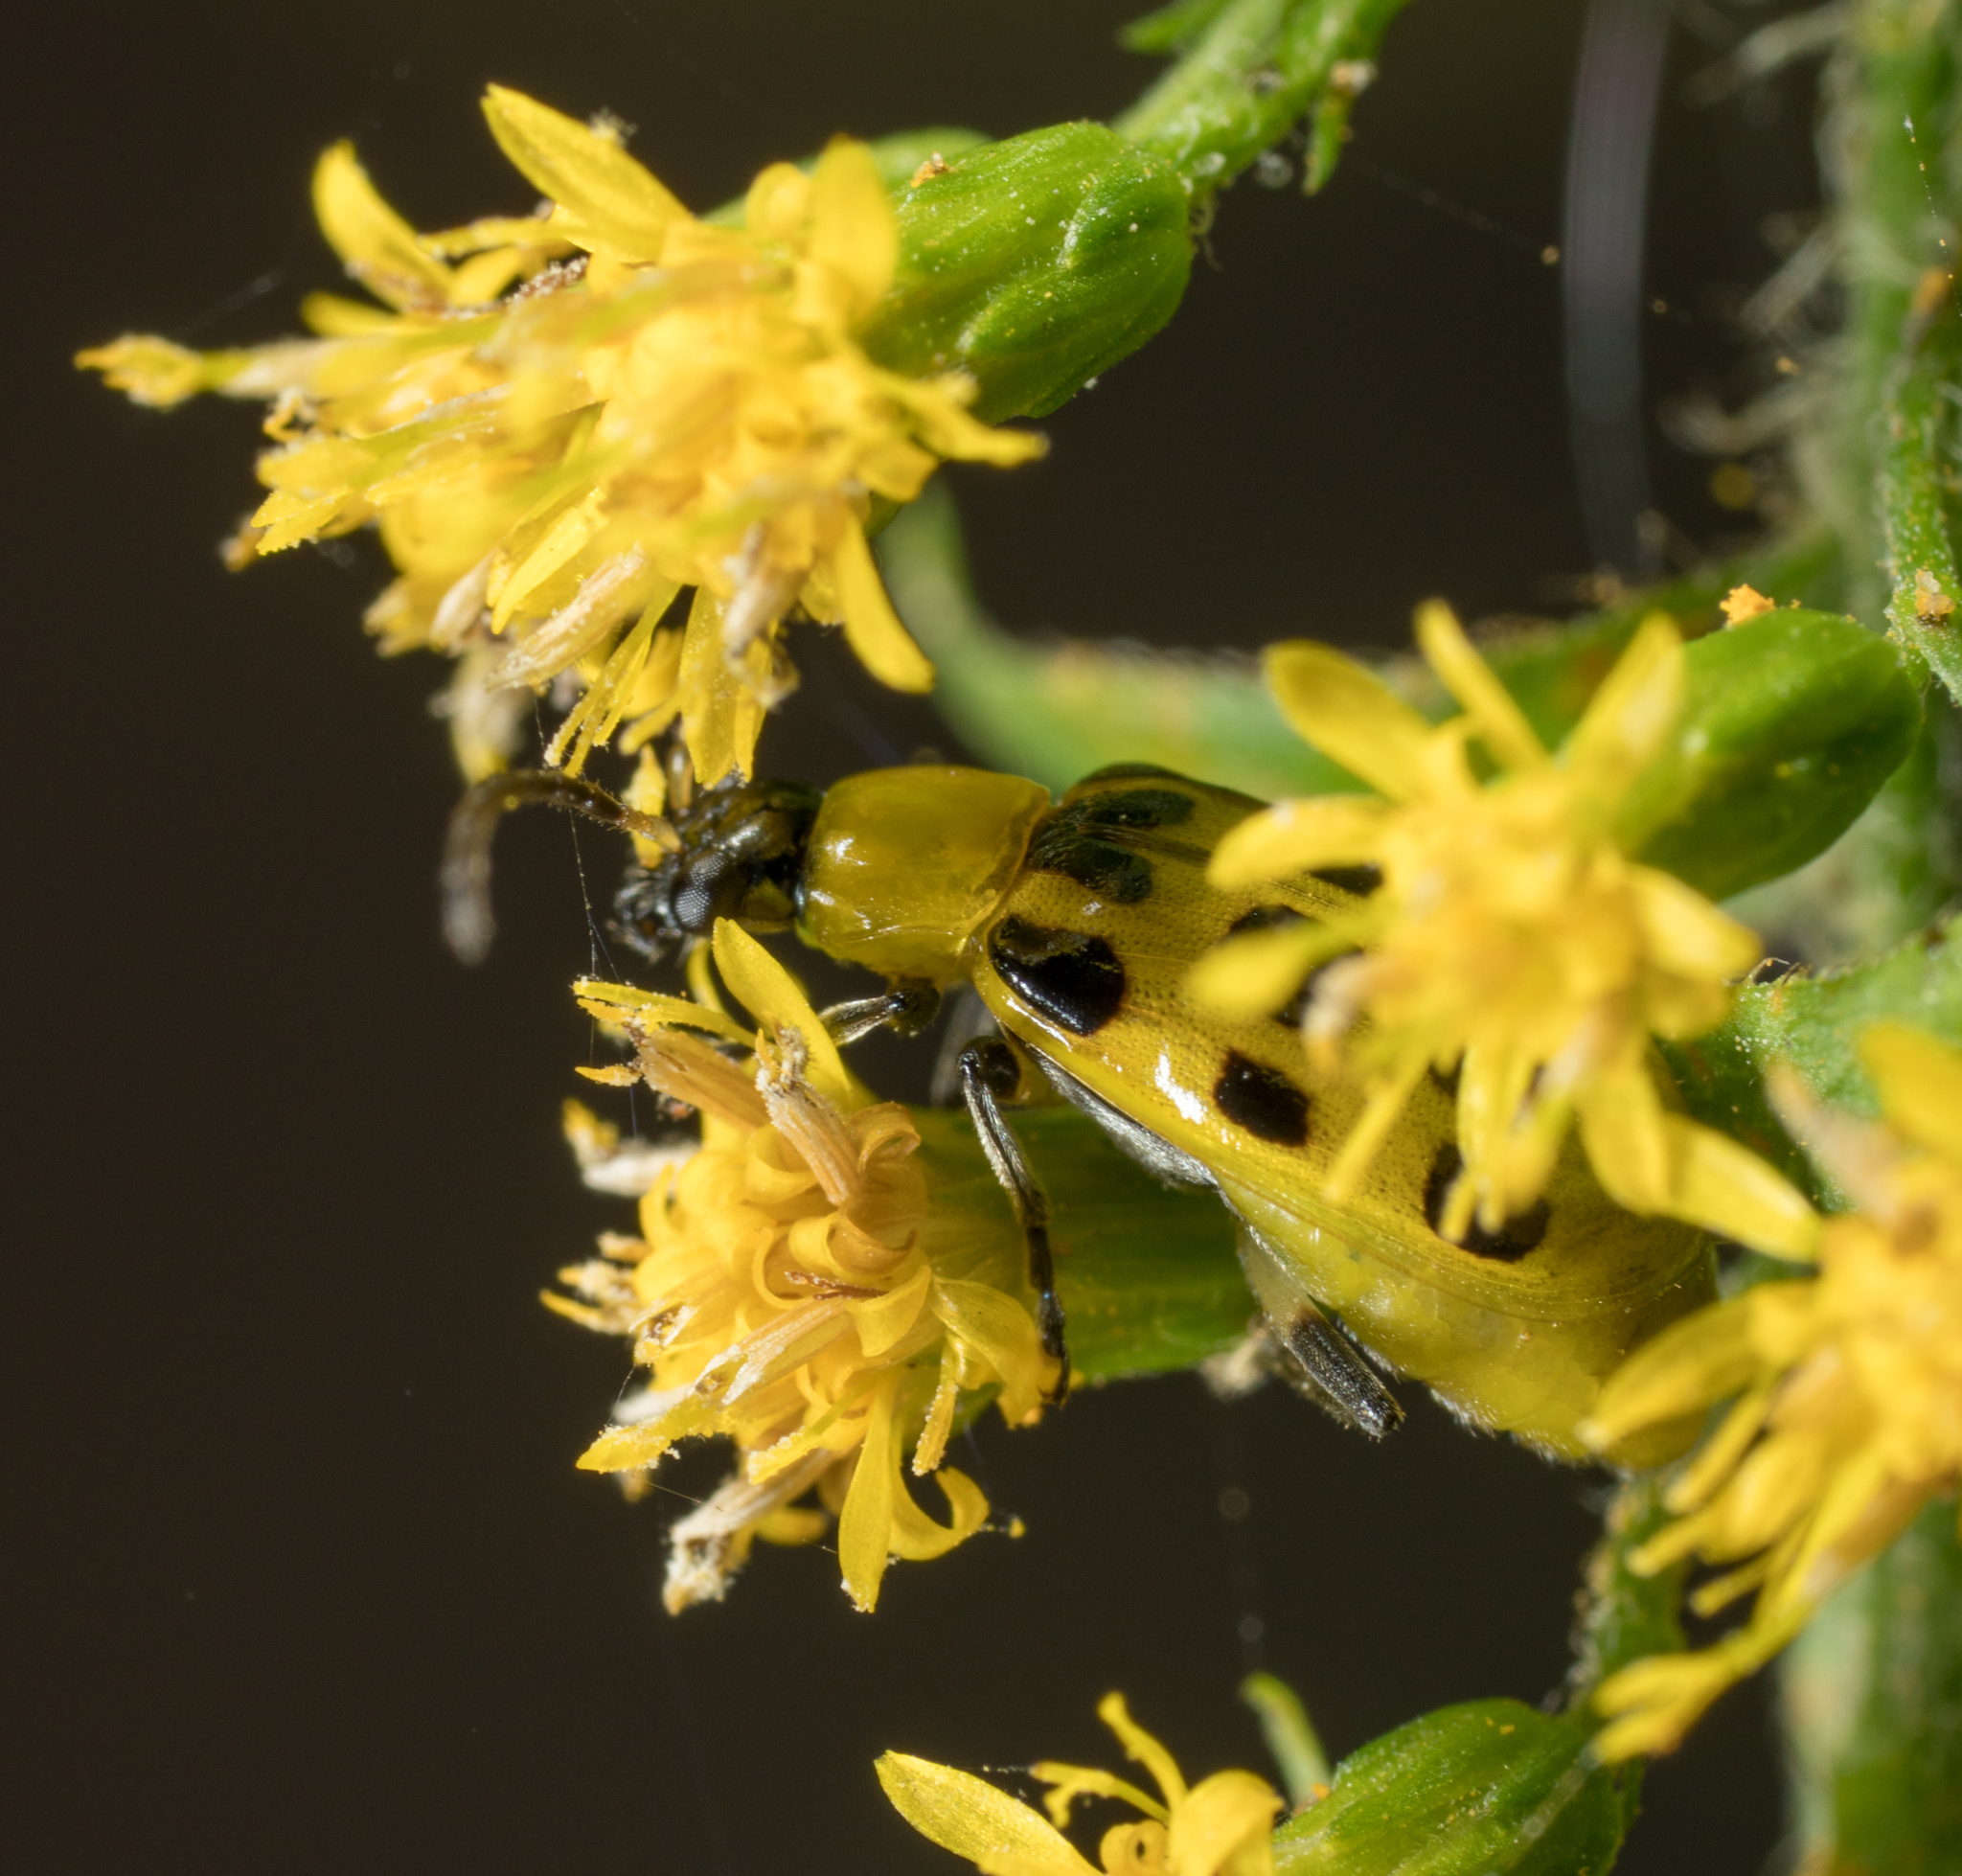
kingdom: Animalia
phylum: Arthropoda
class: Insecta
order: Coleoptera
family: Chrysomelidae
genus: Diabrotica
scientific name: Diabrotica undecimpunctata
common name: Spotted cucumber beetle
